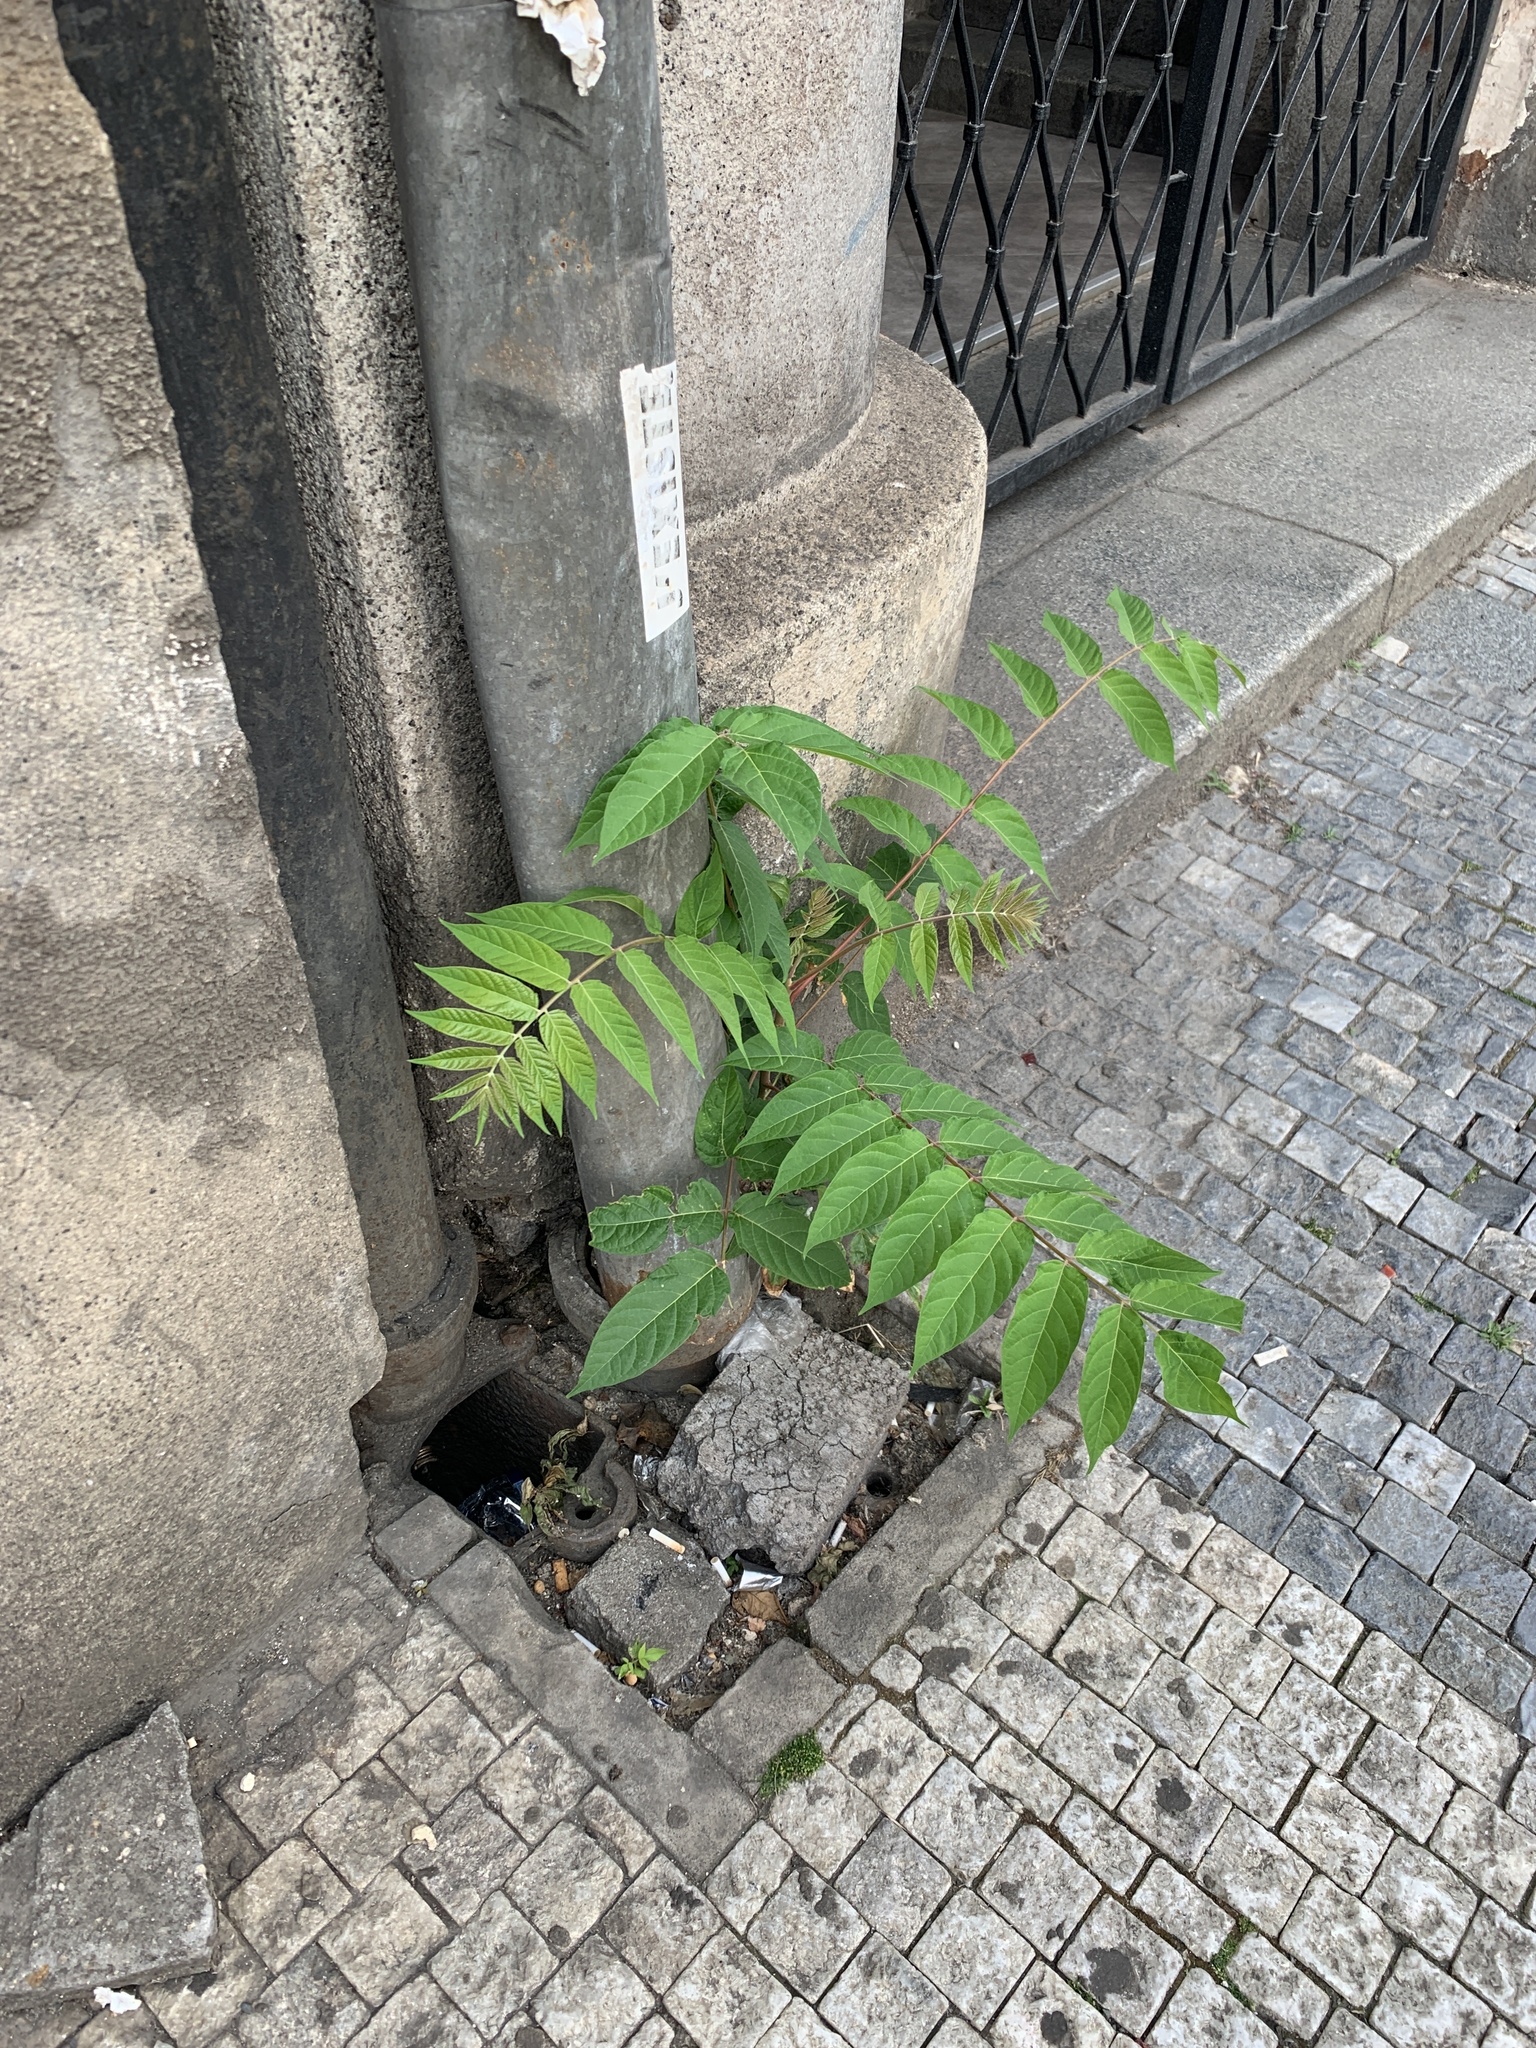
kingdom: Plantae
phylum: Tracheophyta
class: Magnoliopsida
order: Sapindales
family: Simaroubaceae
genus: Ailanthus
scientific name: Ailanthus altissima
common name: Tree-of-heaven
